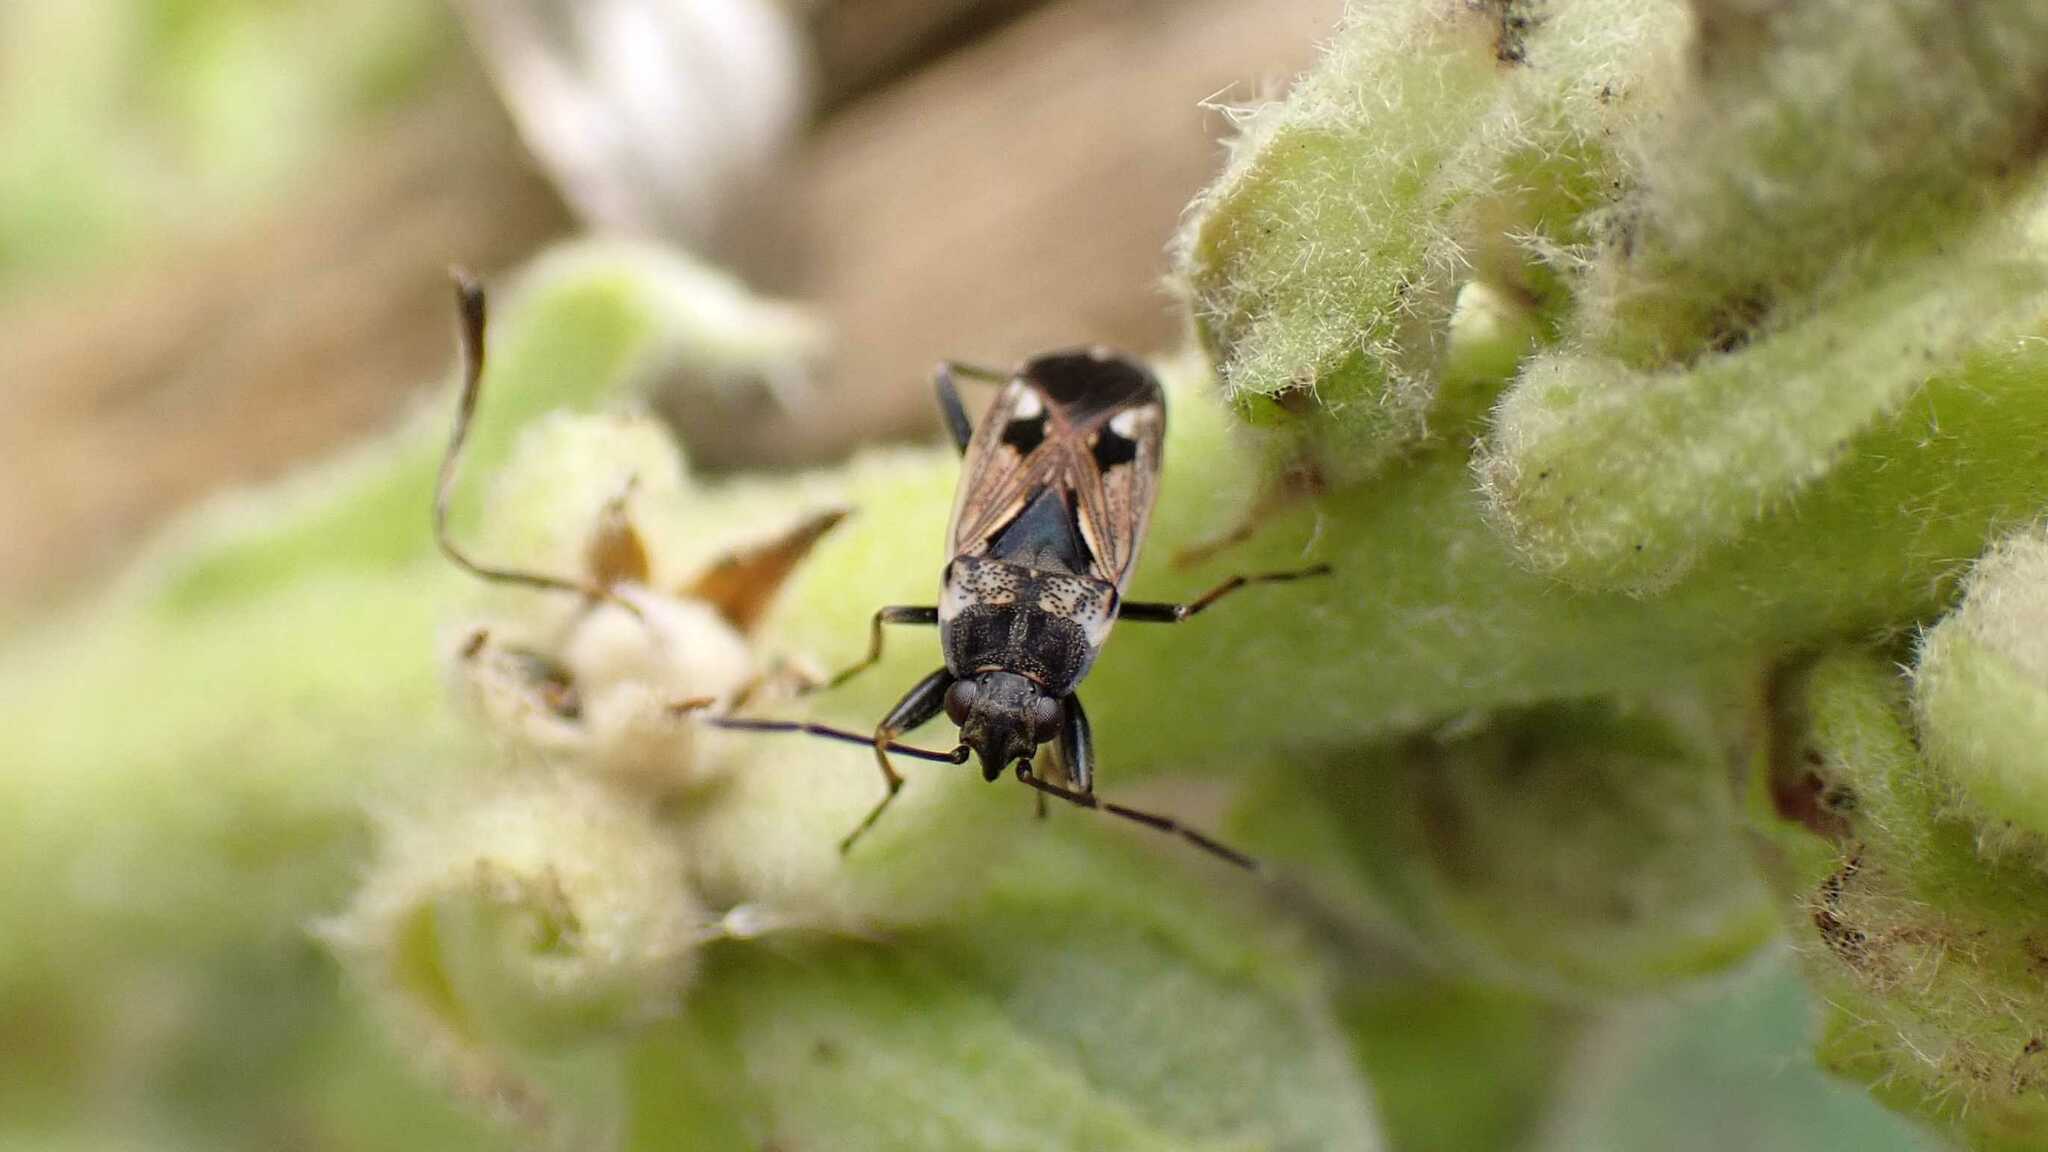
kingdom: Animalia
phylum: Arthropoda
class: Insecta
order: Hemiptera
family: Rhyparochromidae
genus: Rhyparochromus
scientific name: Rhyparochromus vulgaris
